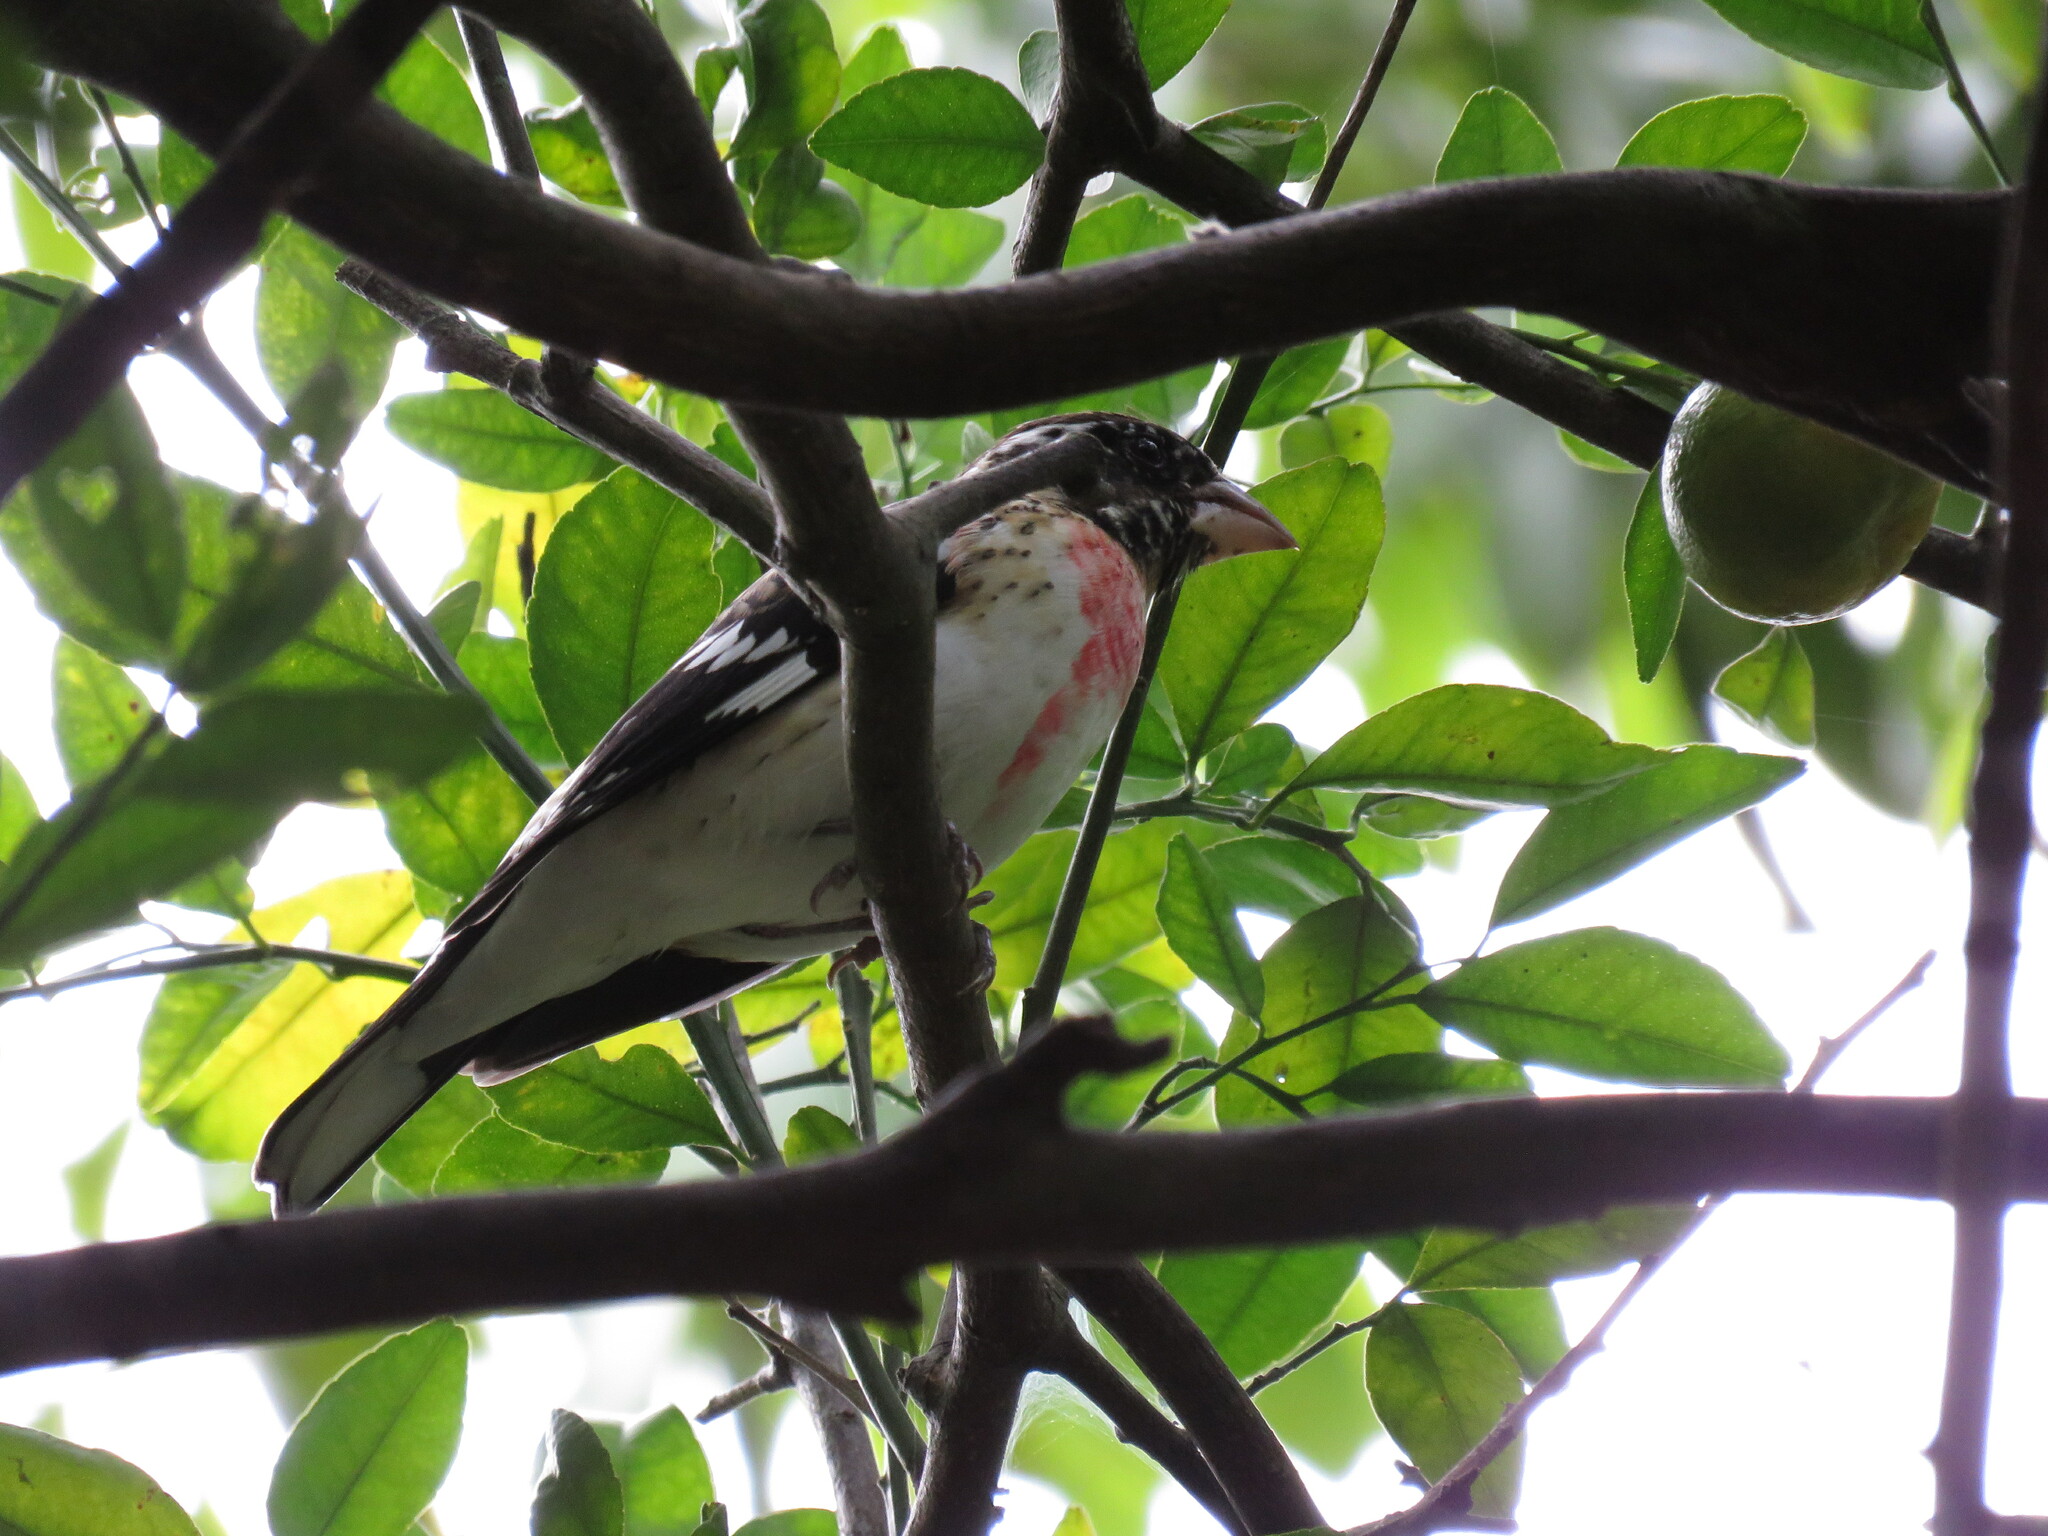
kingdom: Animalia
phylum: Chordata
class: Aves
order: Passeriformes
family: Cardinalidae
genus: Pheucticus
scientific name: Pheucticus ludovicianus
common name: Rose-breasted grosbeak
